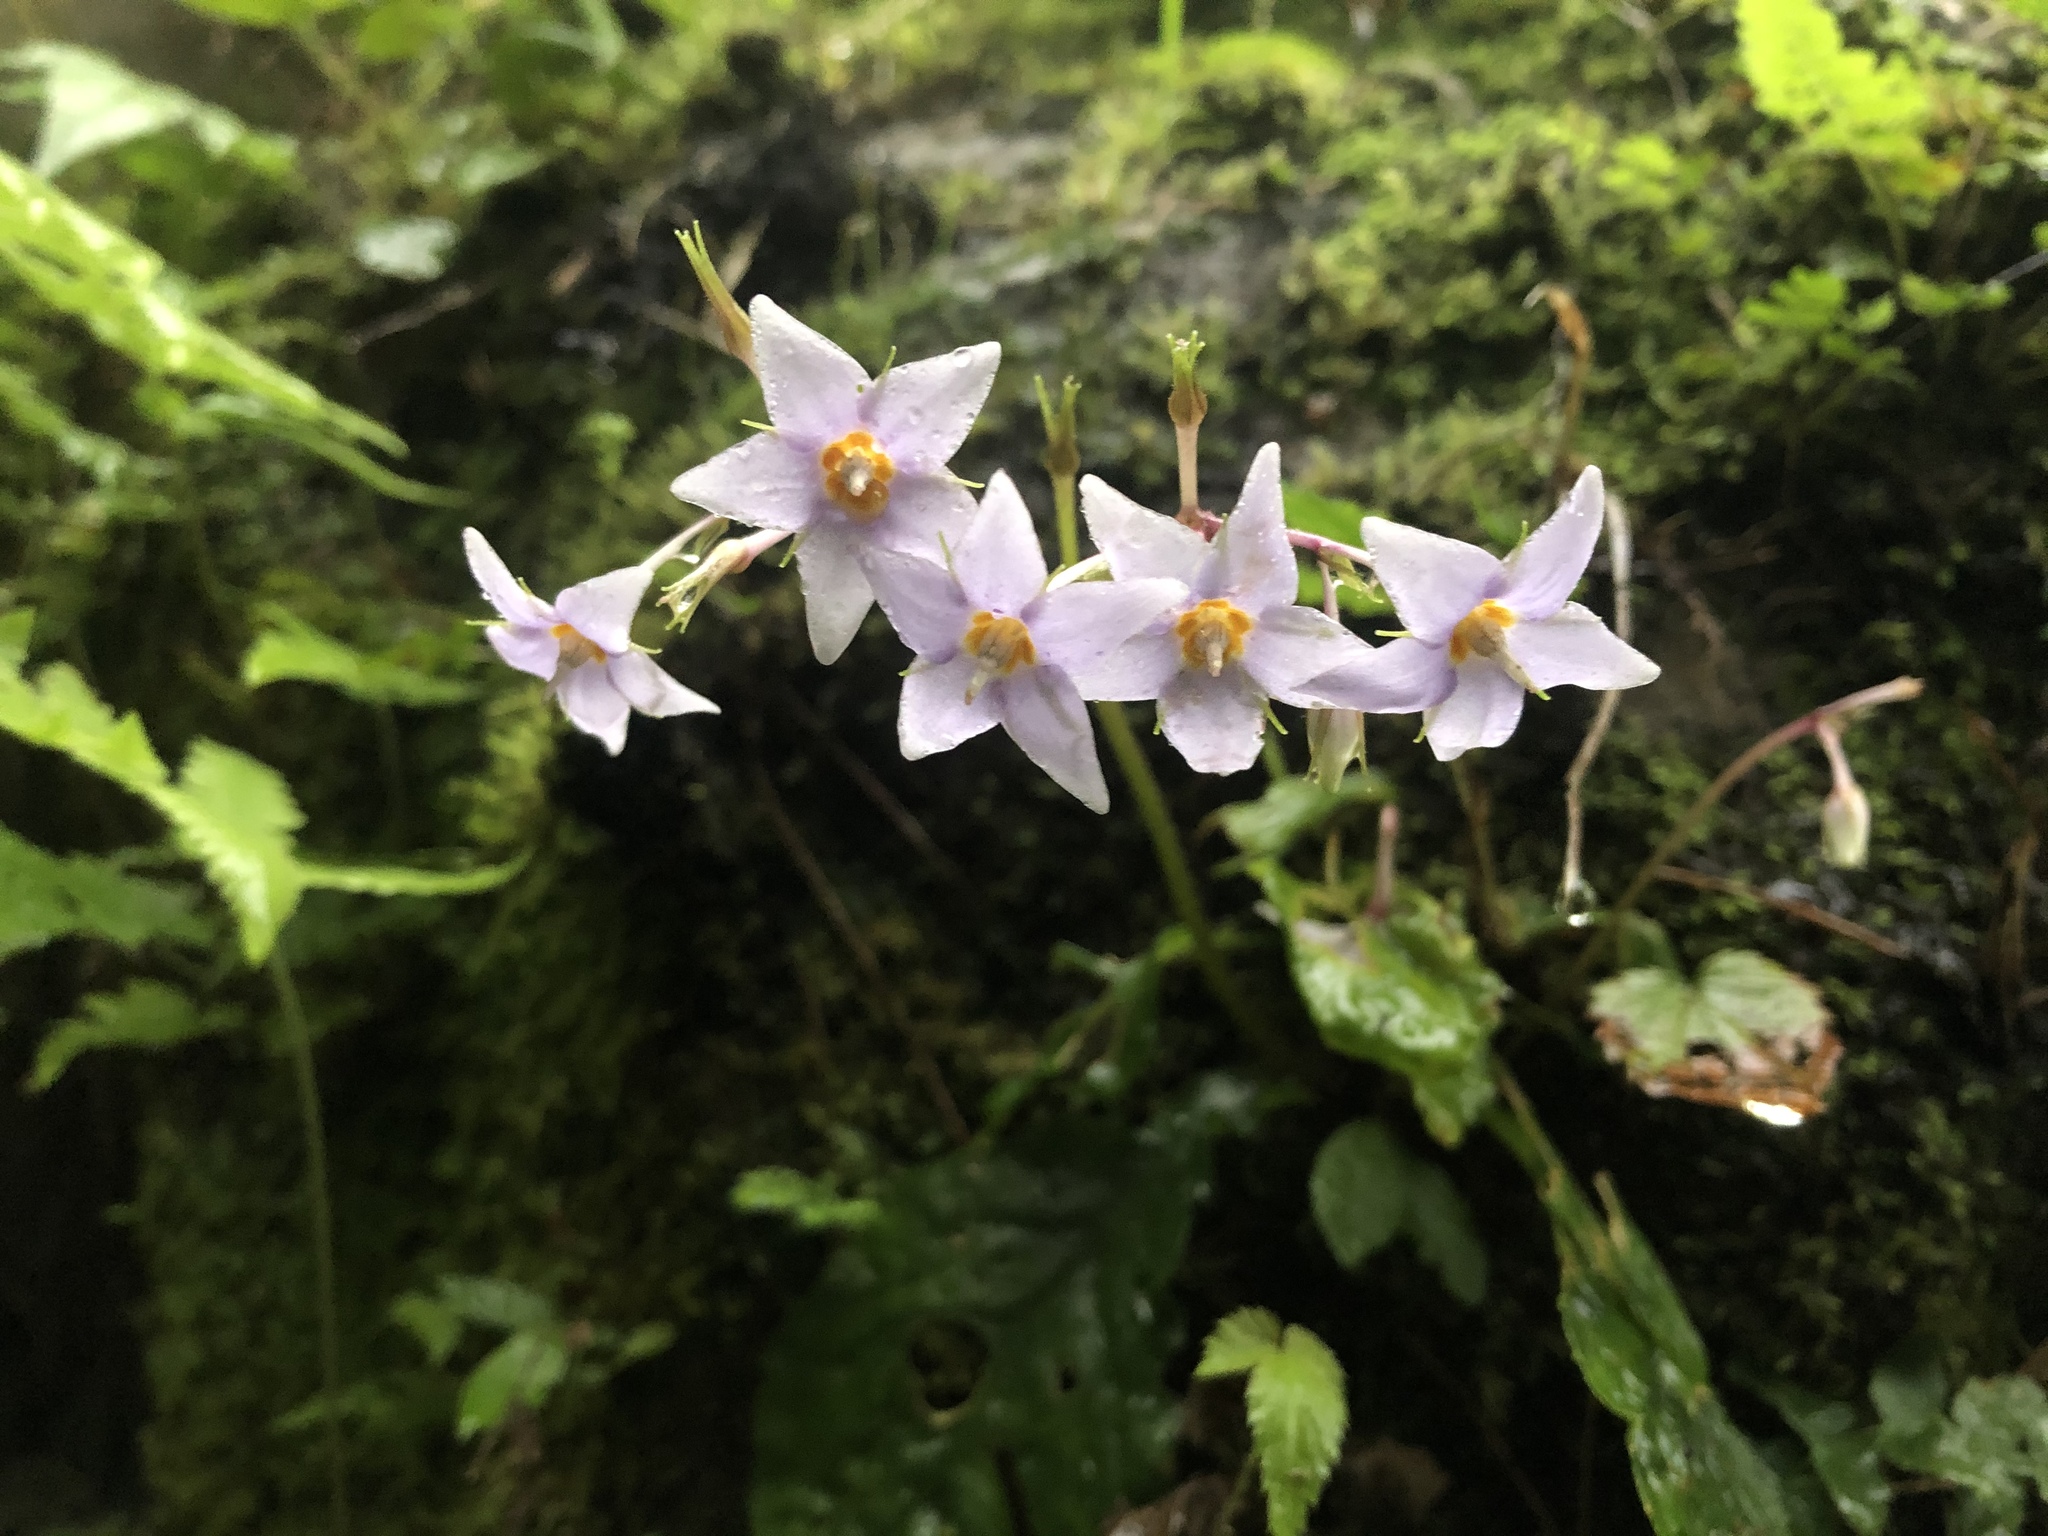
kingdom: Plantae
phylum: Tracheophyta
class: Magnoliopsida
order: Lamiales
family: Gesneriaceae
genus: Conandron
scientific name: Conandron ramondioides
